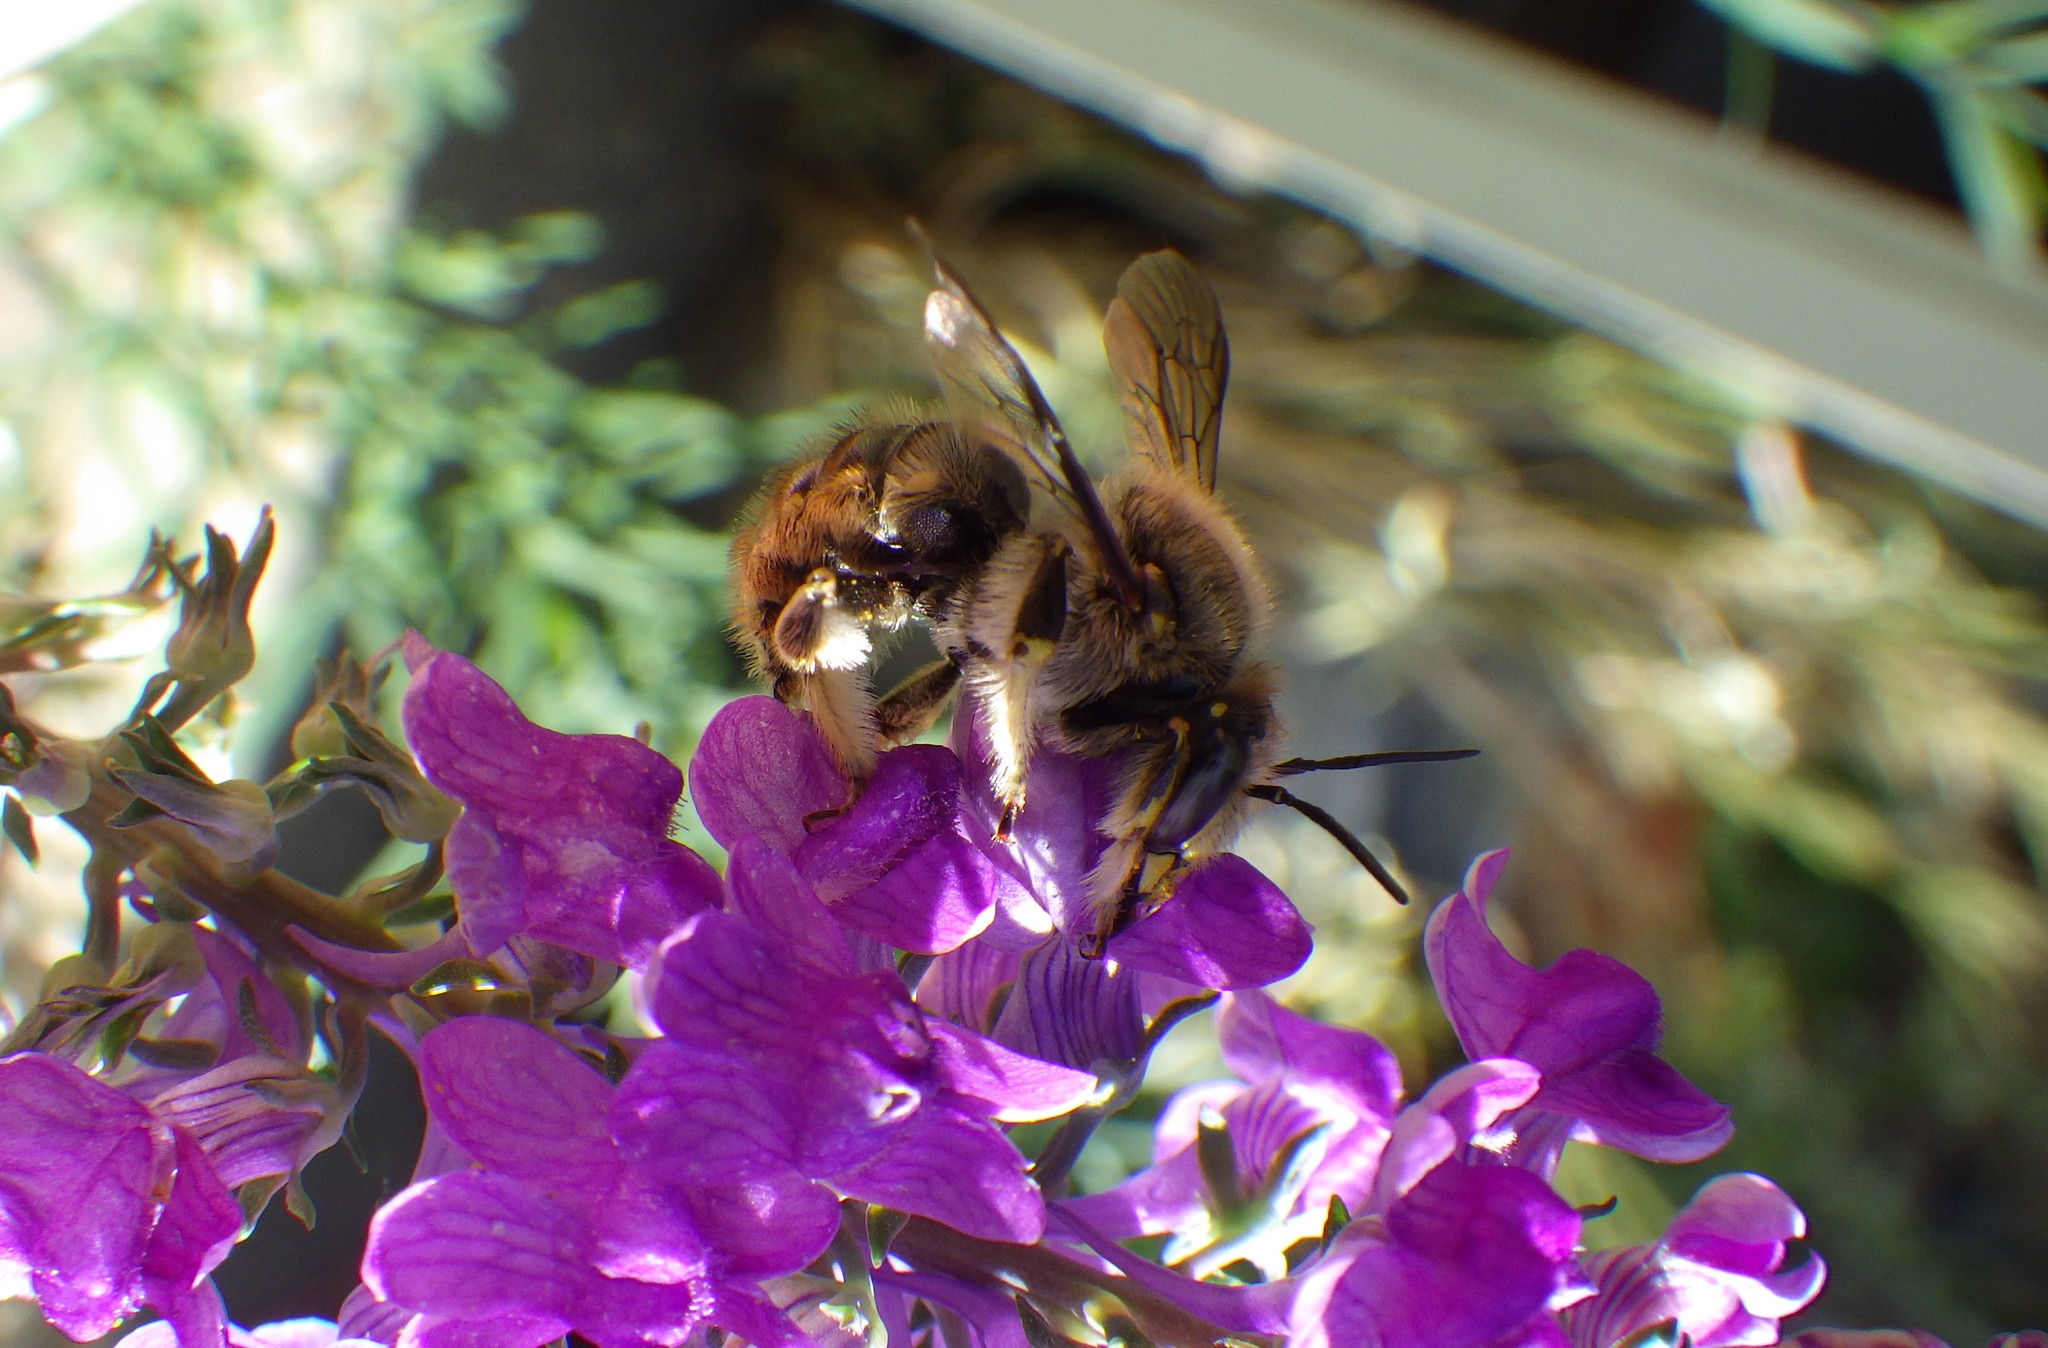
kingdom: Animalia
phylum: Arthropoda
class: Insecta
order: Hymenoptera
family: Megachilidae
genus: Anthidium
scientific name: Anthidium manicatum
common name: Wool carder bee
